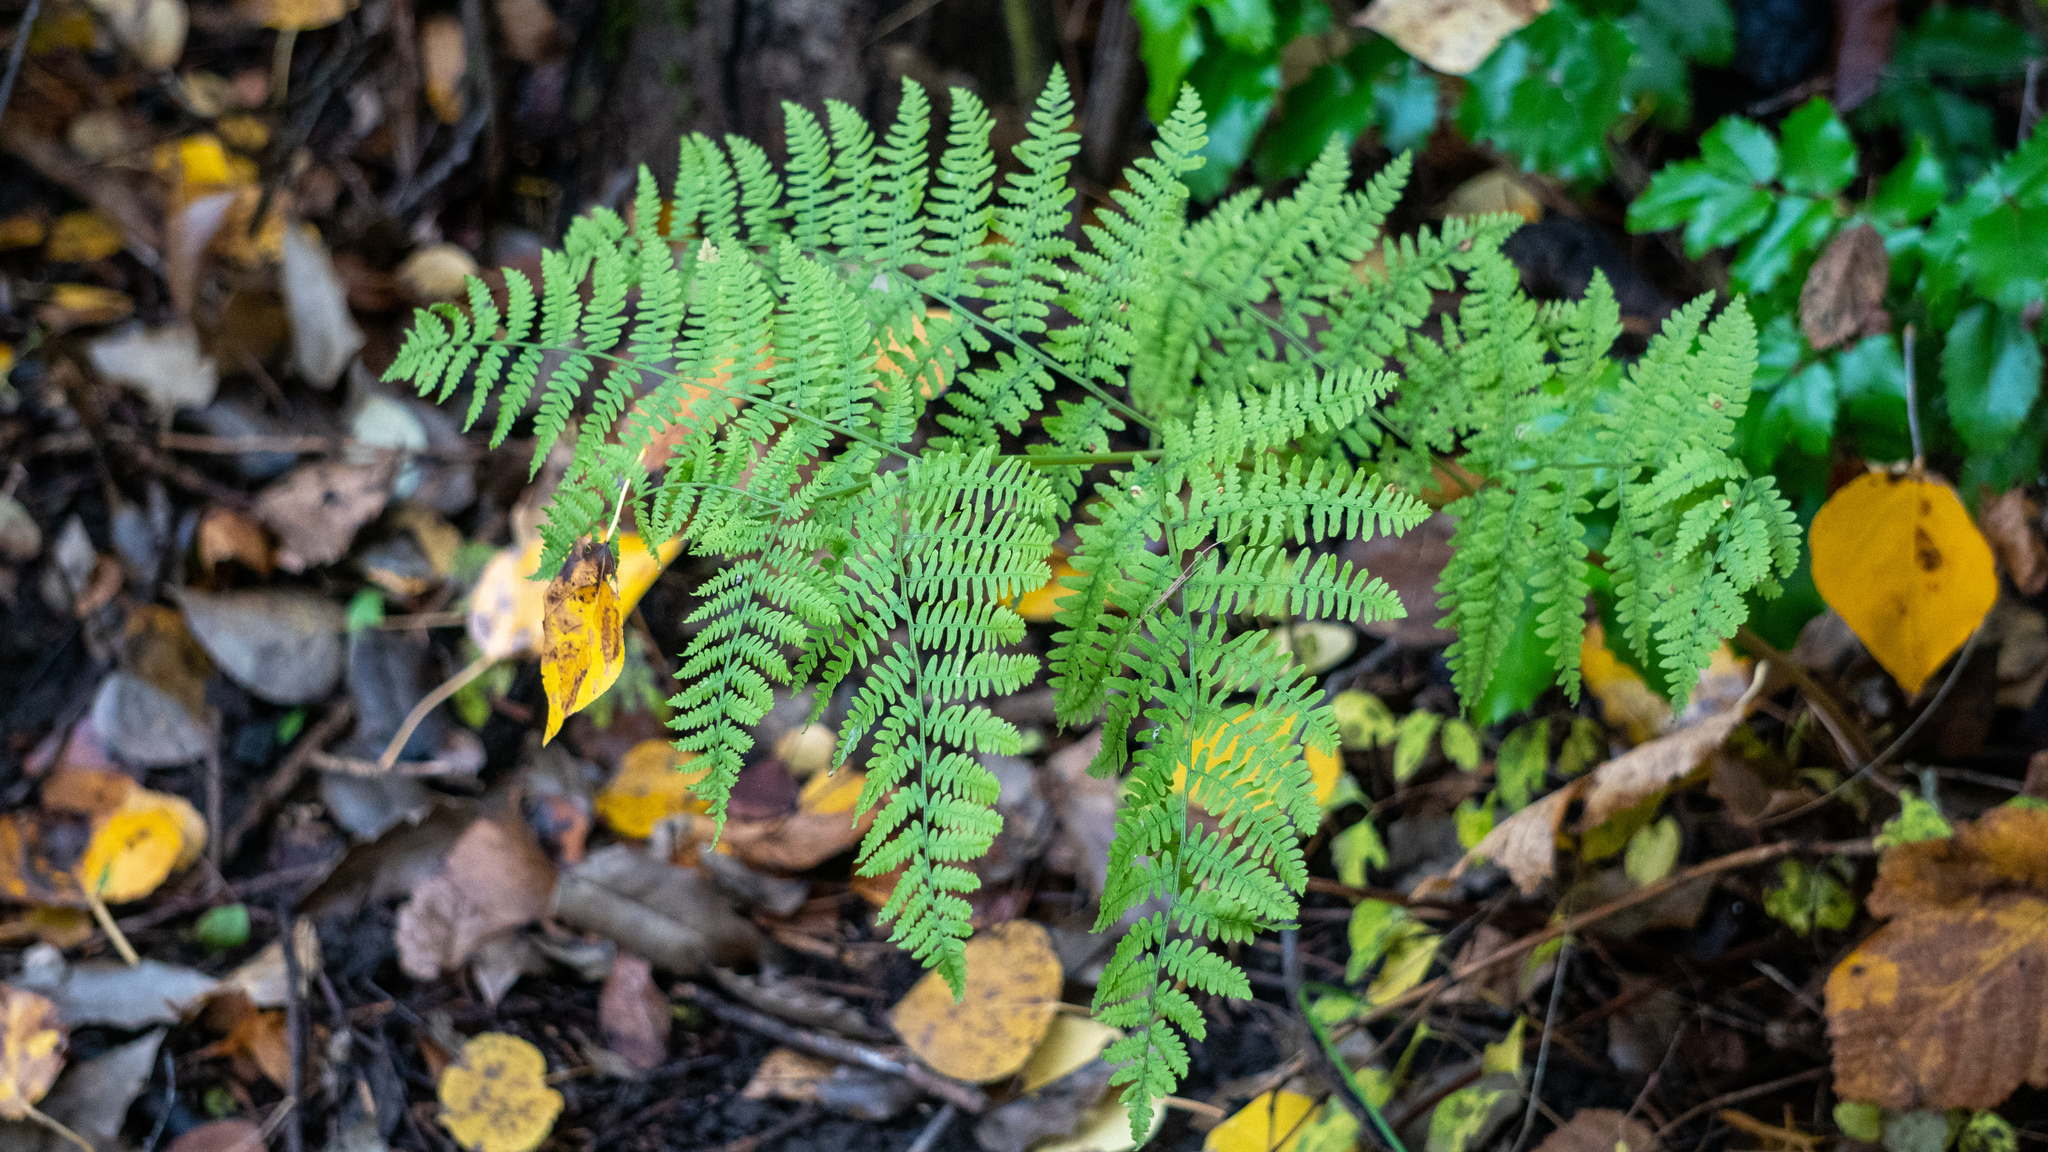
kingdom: Plantae
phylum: Tracheophyta
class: Polypodiopsida
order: Polypodiales
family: Dennstaedtiaceae
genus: Pteridium
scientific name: Pteridium aquilinum
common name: Bracken
